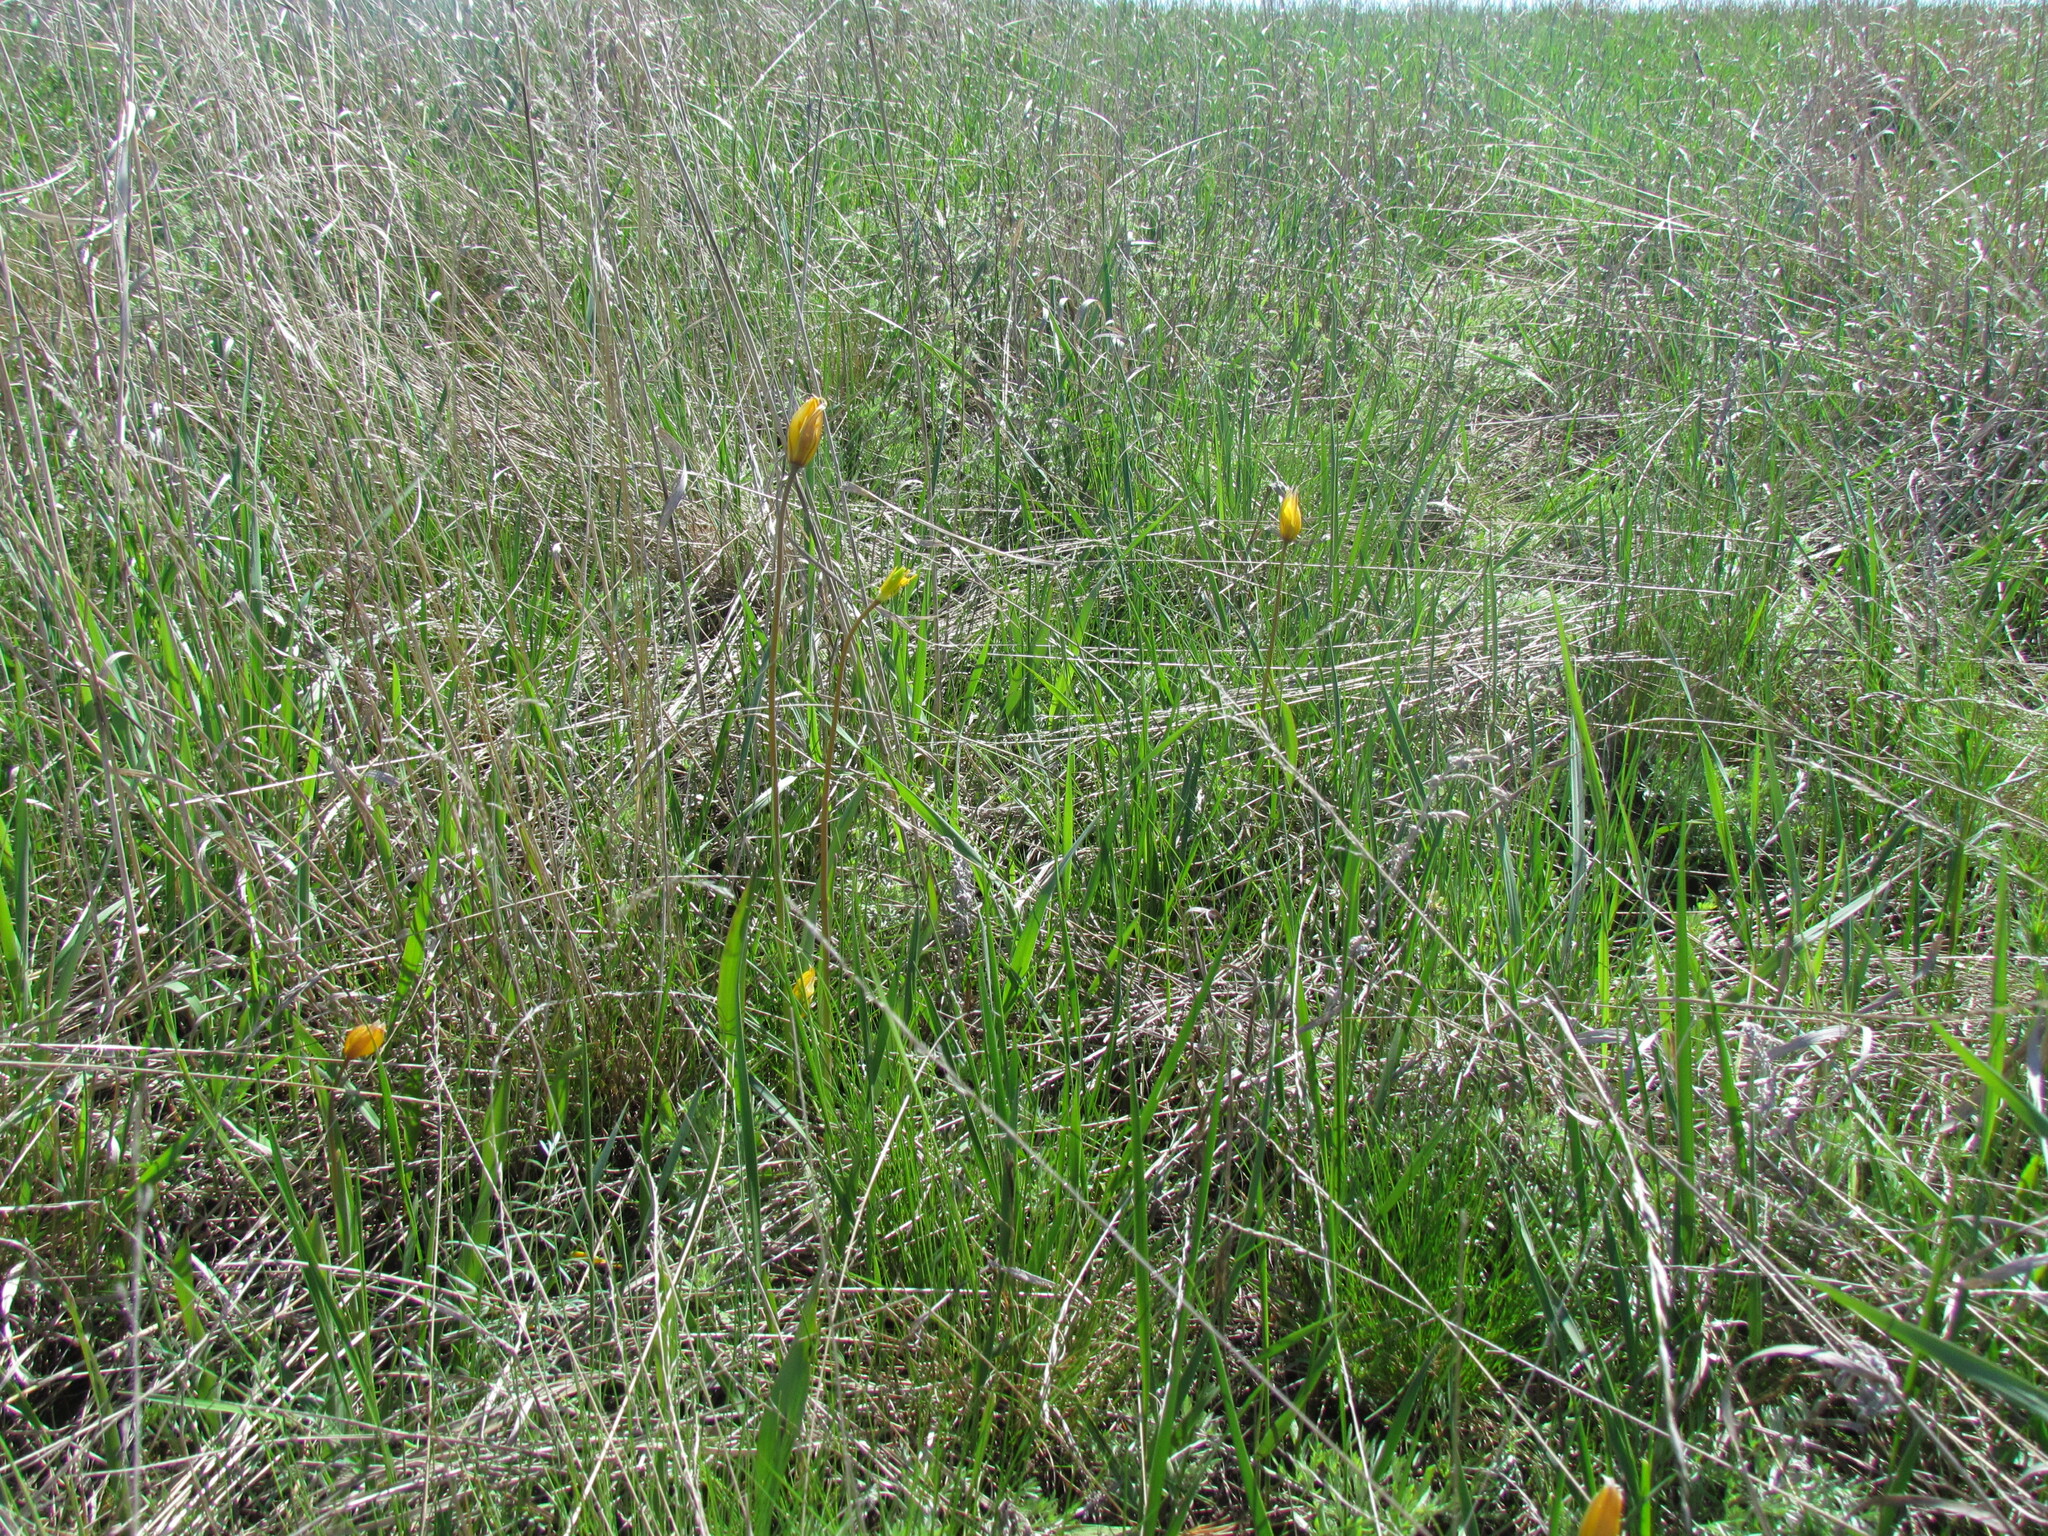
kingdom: Plantae
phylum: Tracheophyta
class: Liliopsida
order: Liliales
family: Liliaceae
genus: Tulipa
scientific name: Tulipa sylvestris
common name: Wild tulip
